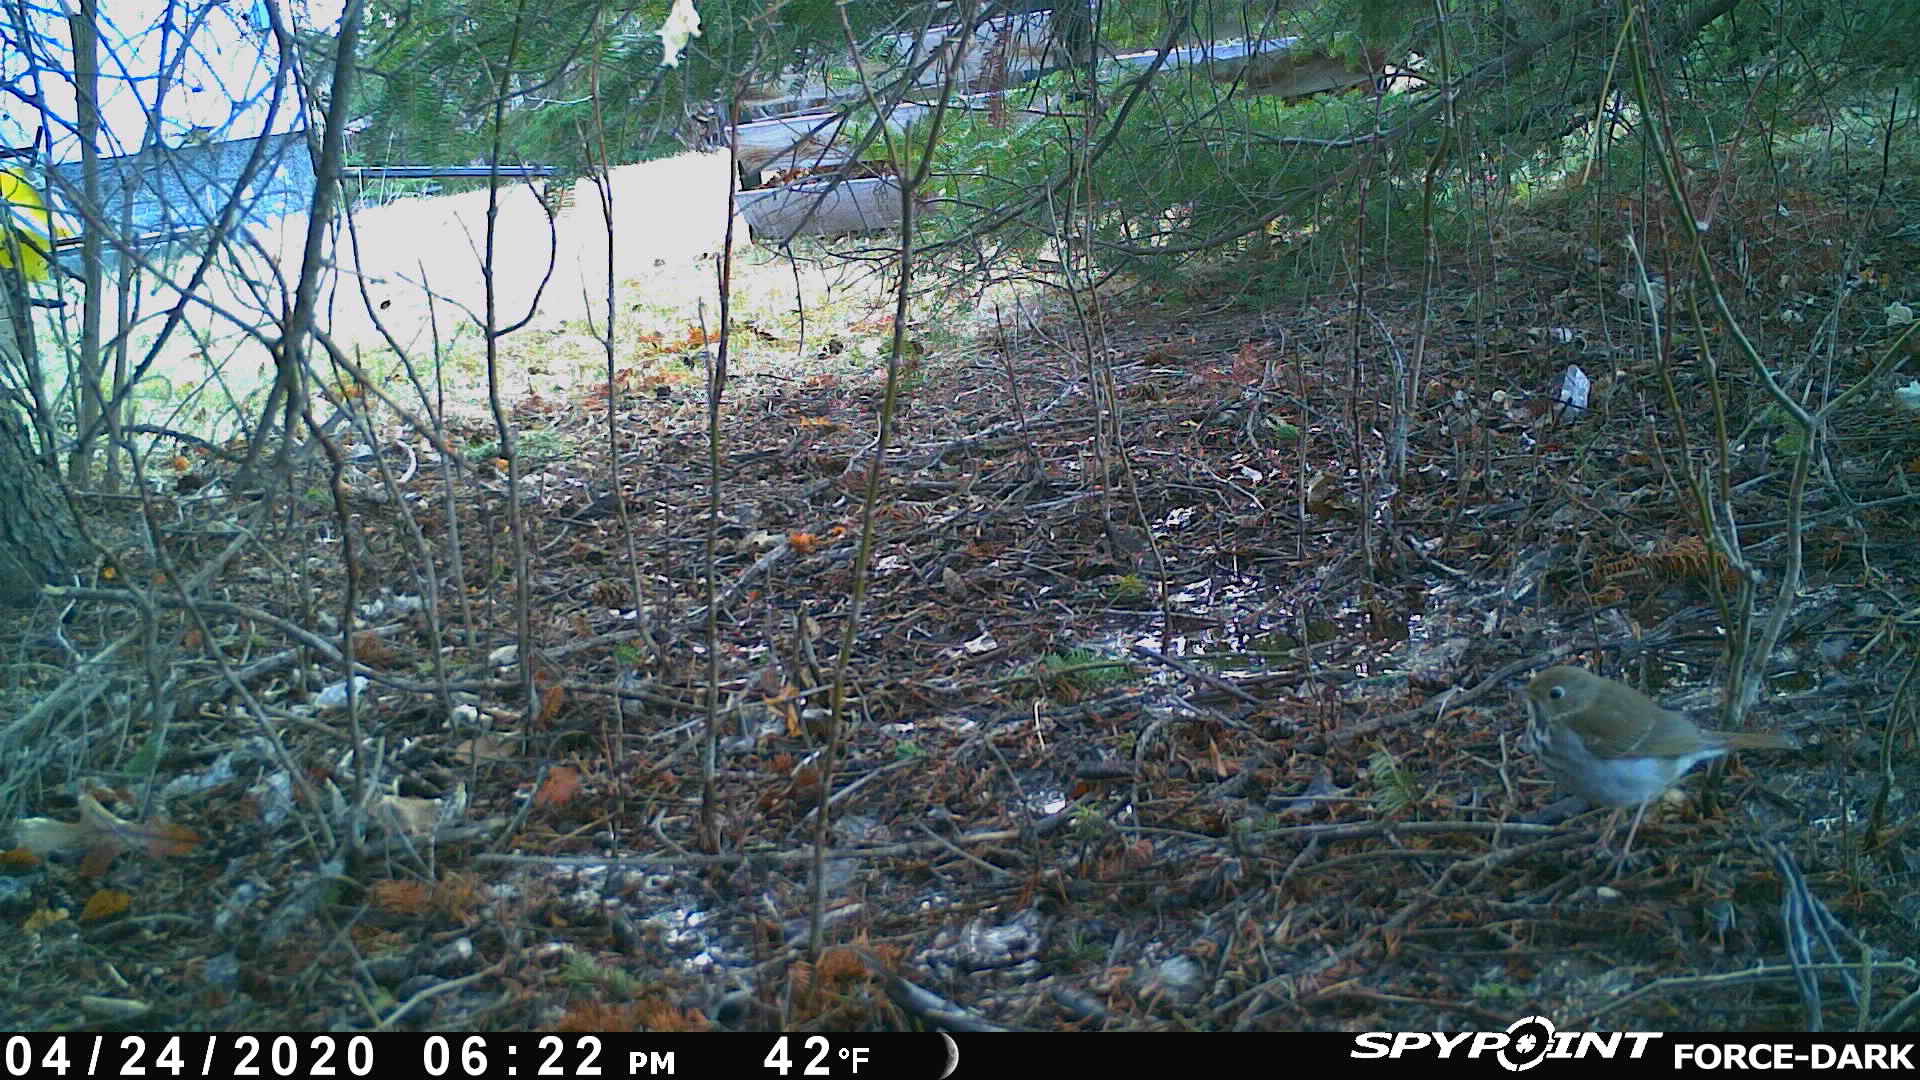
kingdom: Animalia
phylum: Chordata
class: Aves
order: Passeriformes
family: Turdidae
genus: Catharus
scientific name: Catharus guttatus
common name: Hermit thrush
